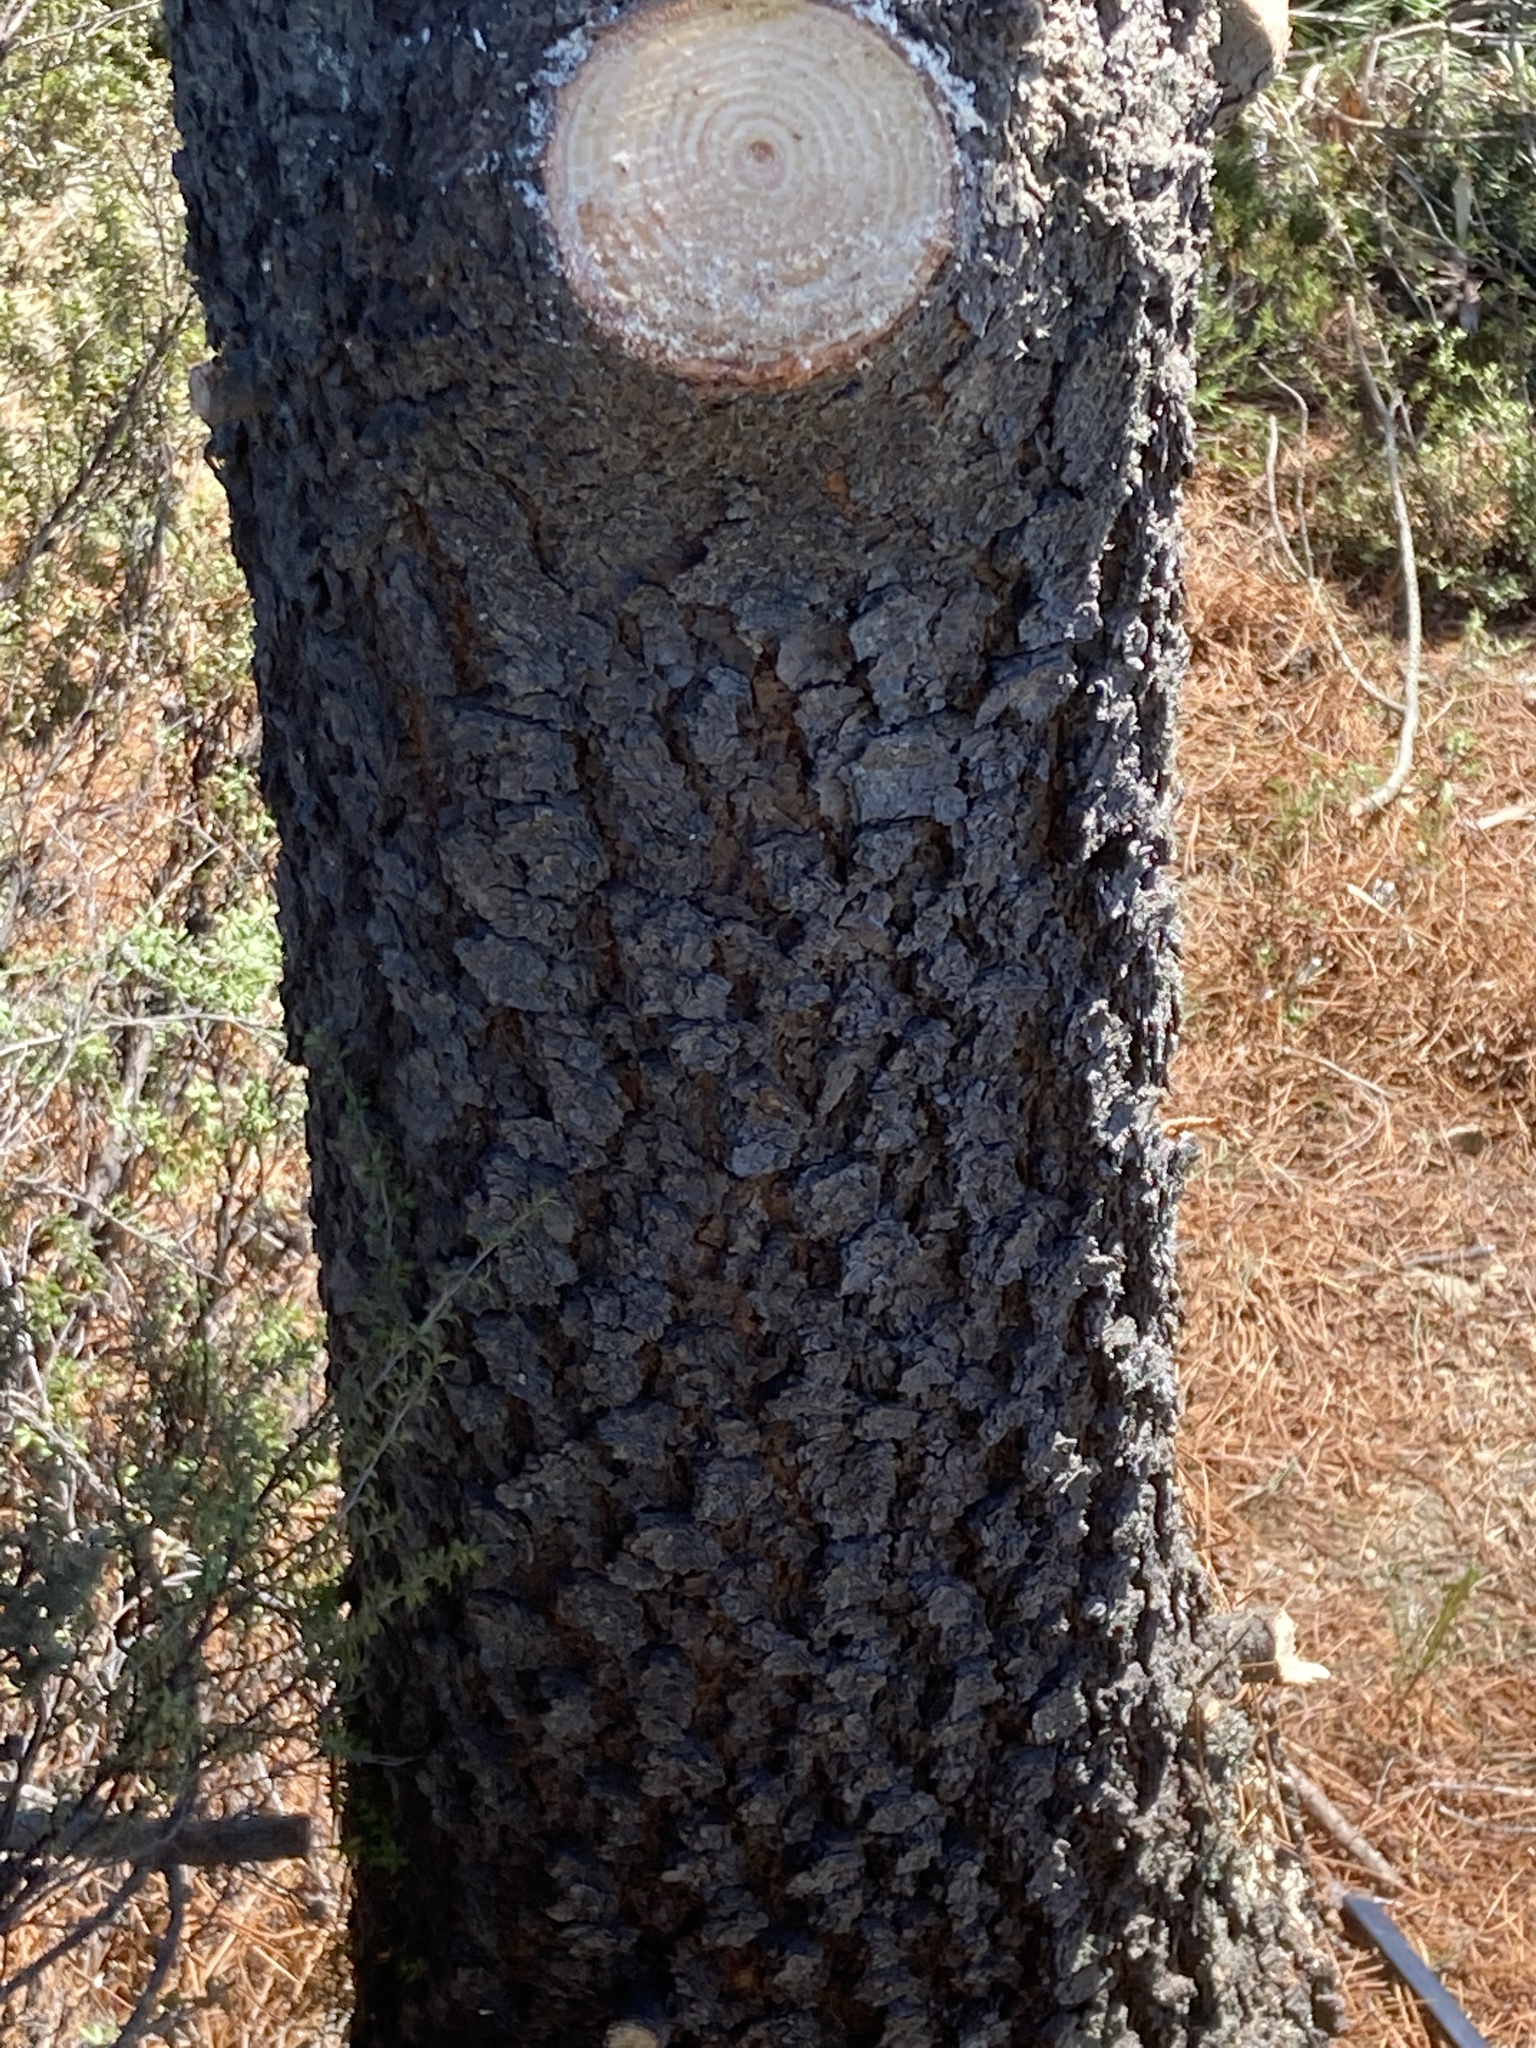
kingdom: Plantae
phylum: Tracheophyta
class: Pinopsida
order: Pinales
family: Pinaceae
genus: Pinus
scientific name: Pinus contorta
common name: Lodgepole pine
